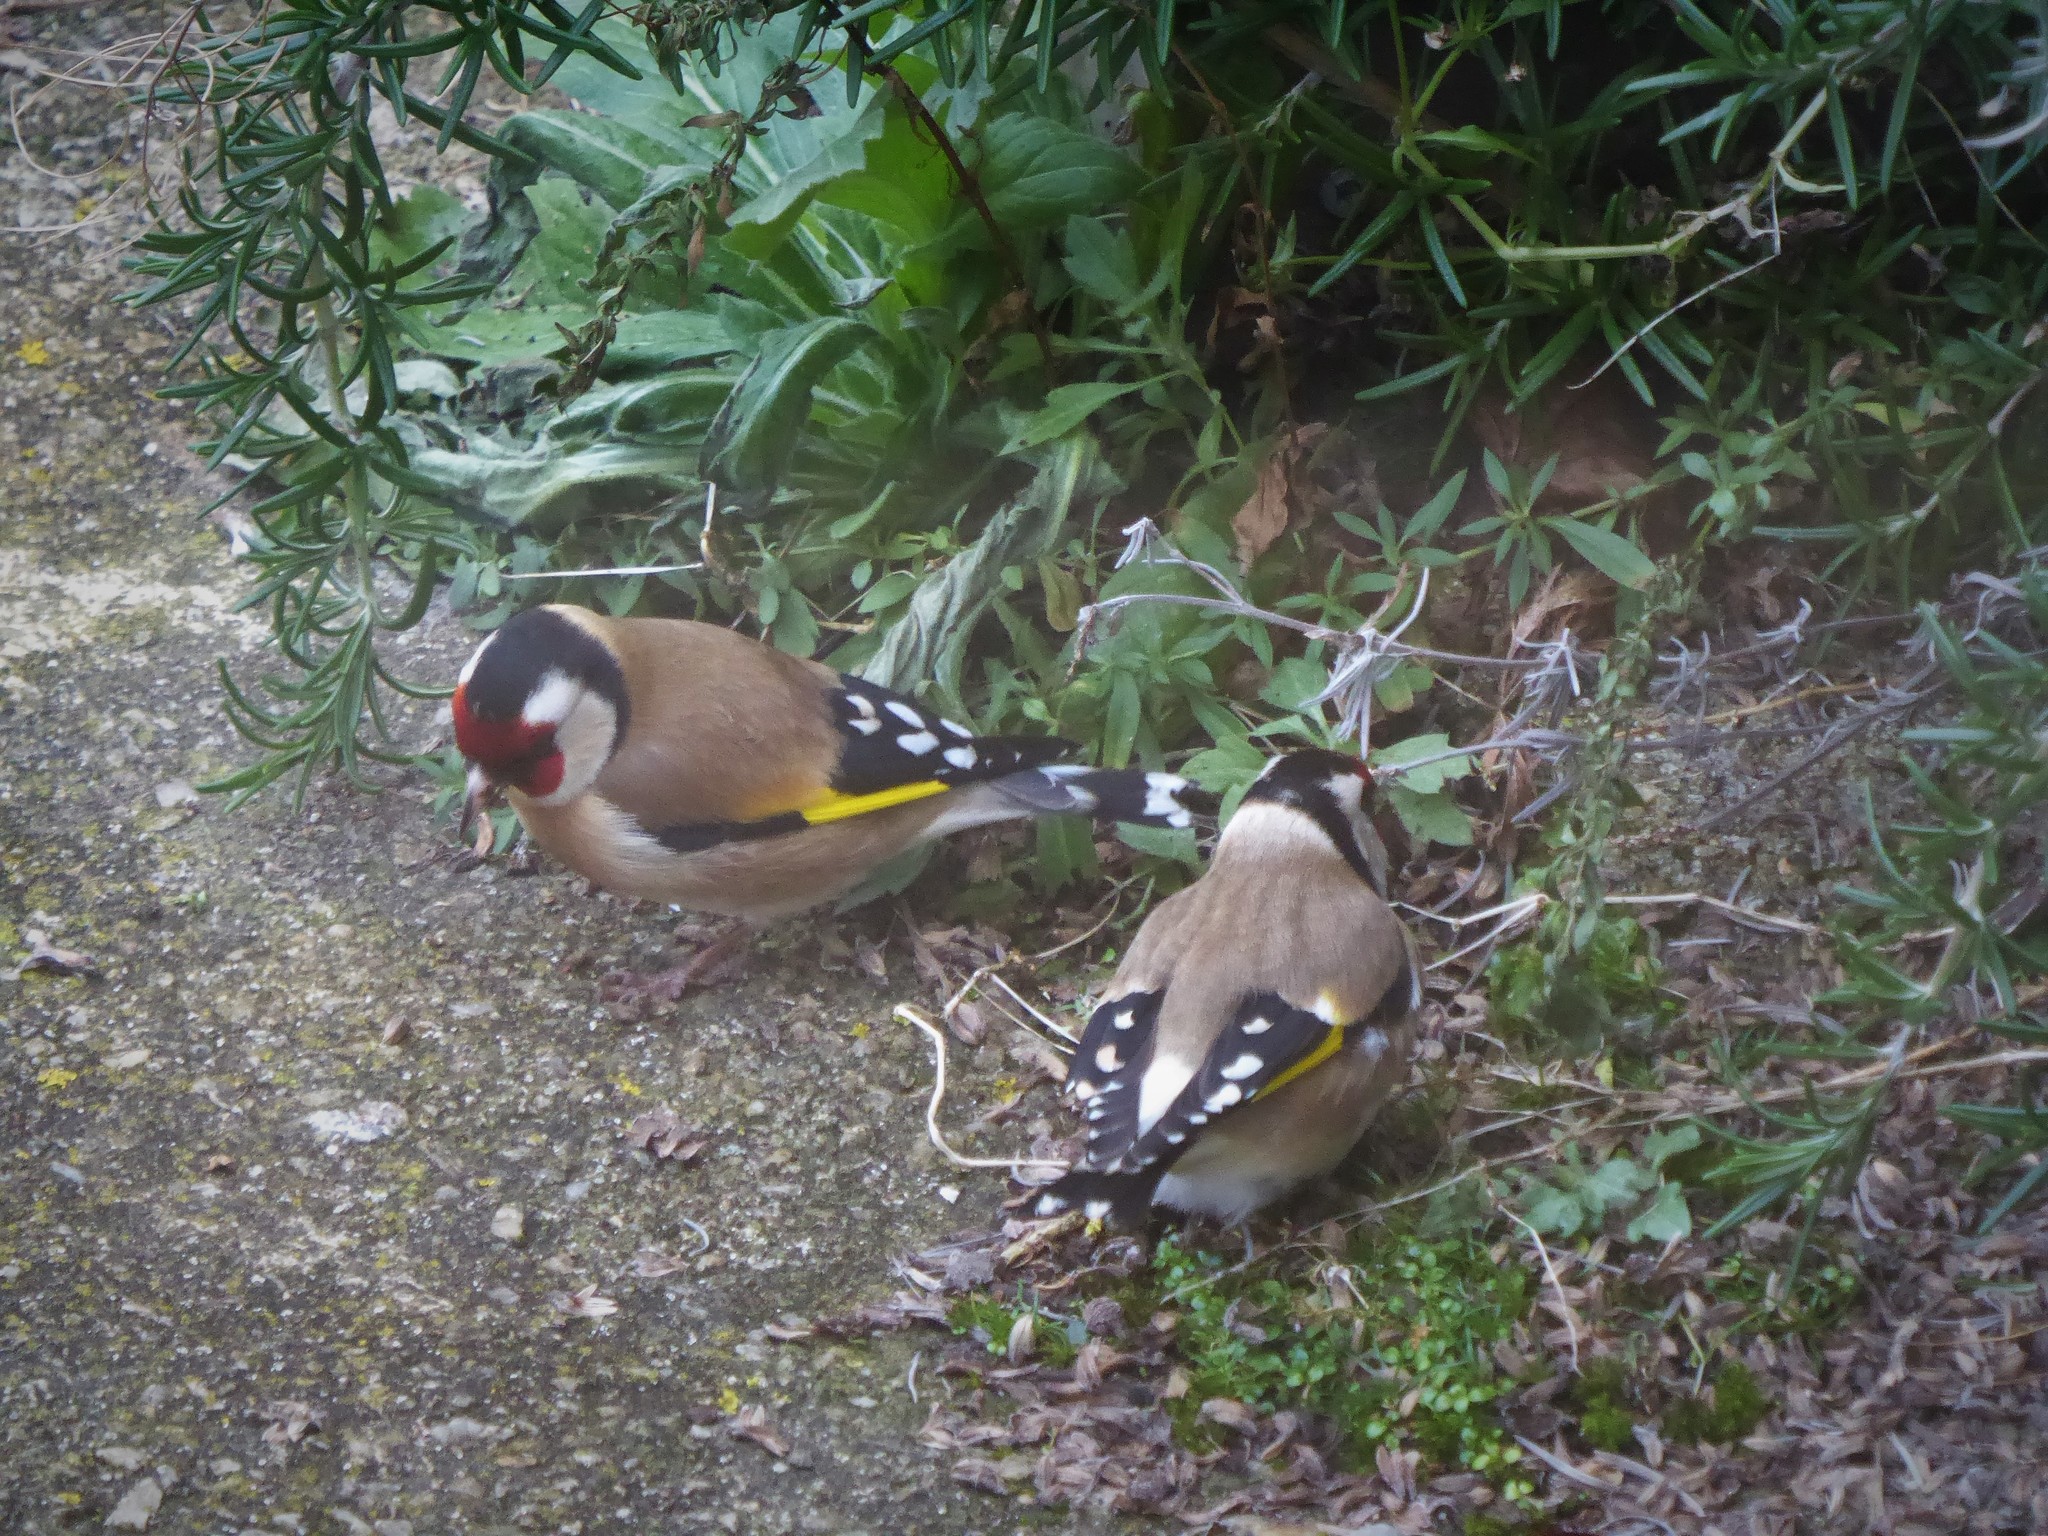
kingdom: Animalia
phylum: Chordata
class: Aves
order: Passeriformes
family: Fringillidae
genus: Carduelis
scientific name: Carduelis carduelis
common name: European goldfinch
